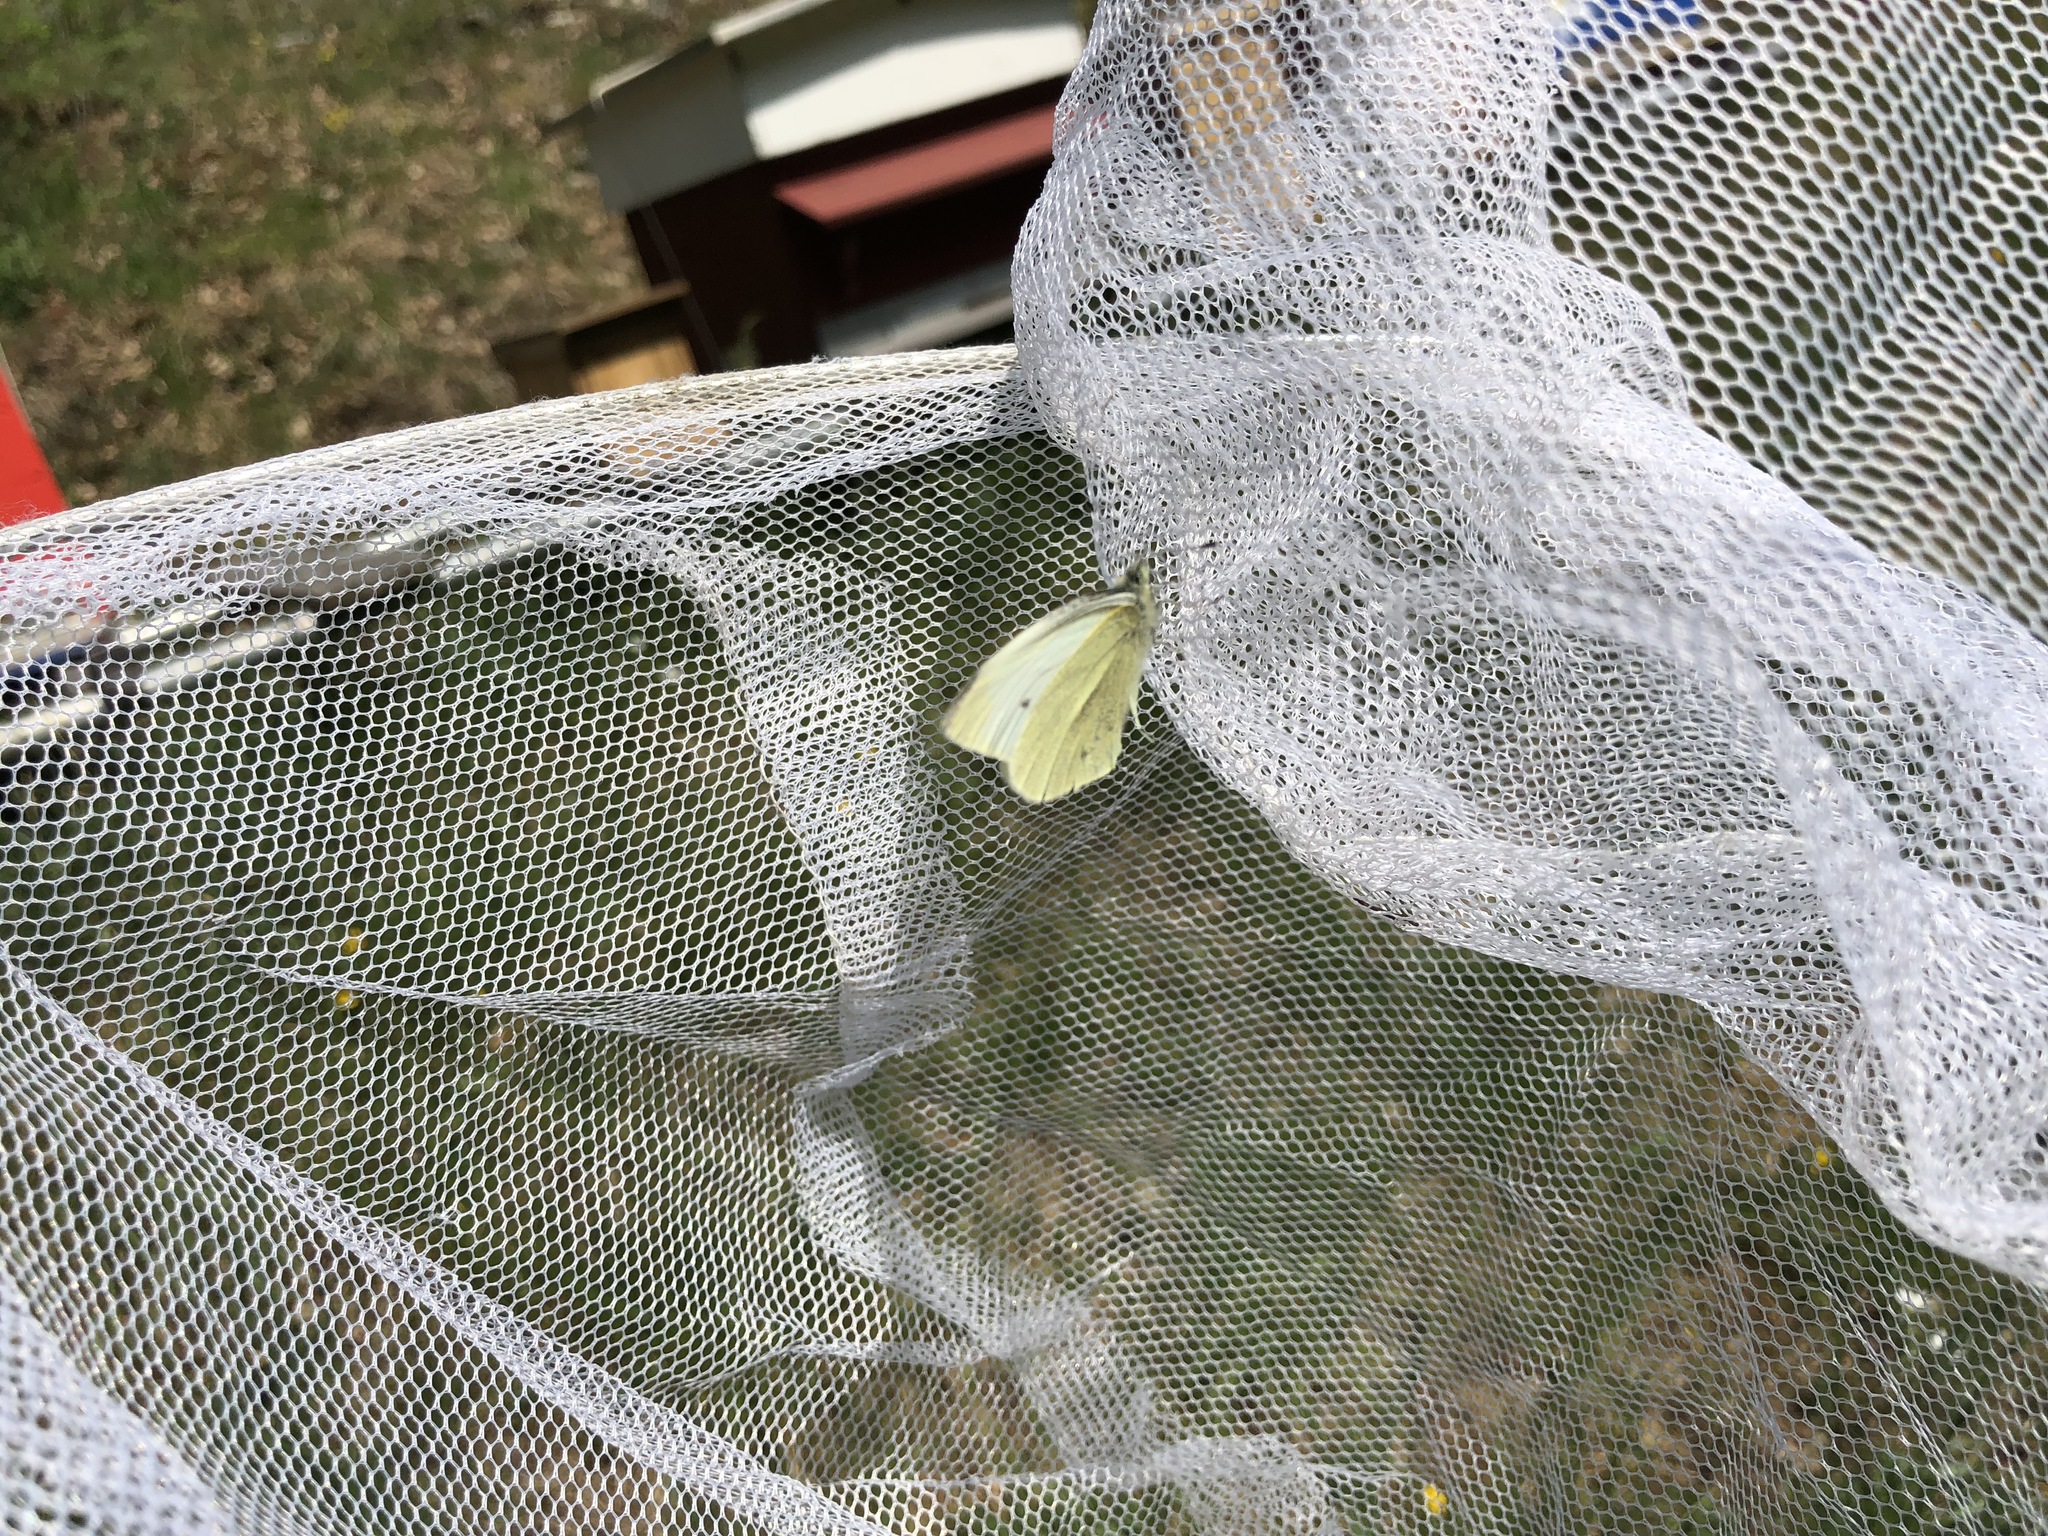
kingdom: Animalia
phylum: Arthropoda
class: Insecta
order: Lepidoptera
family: Pieridae
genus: Pieris
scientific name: Pieris rapae
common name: Small white
